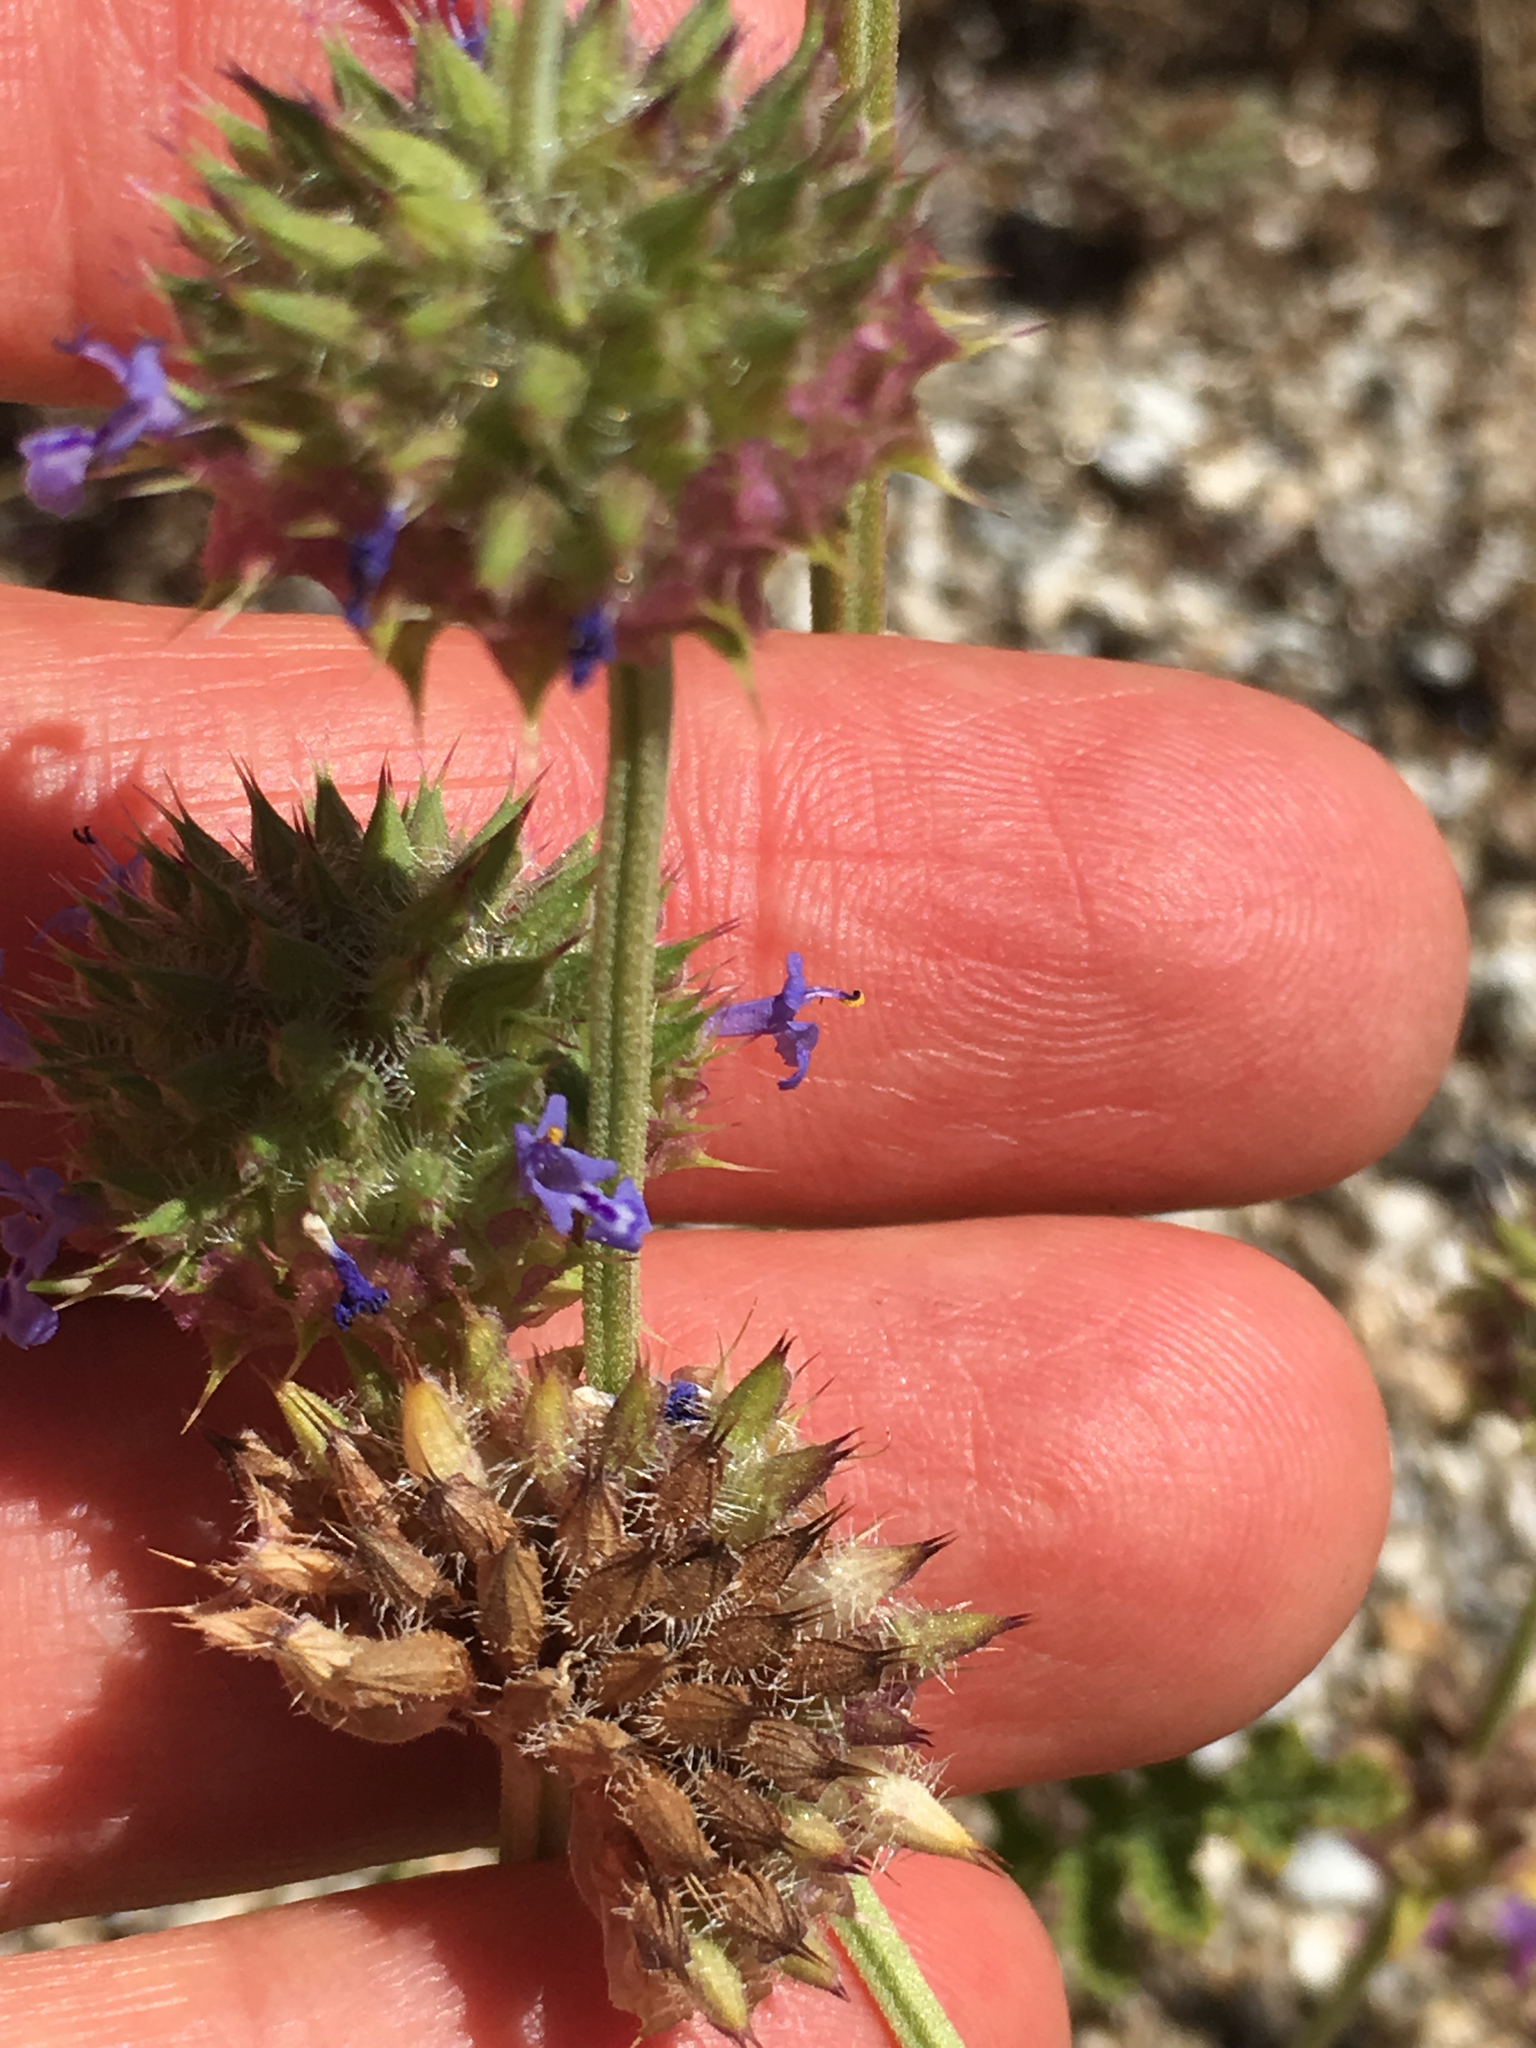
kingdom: Plantae
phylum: Tracheophyta
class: Magnoliopsida
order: Lamiales
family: Lamiaceae
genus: Salvia
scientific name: Salvia columbariae
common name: Chia
